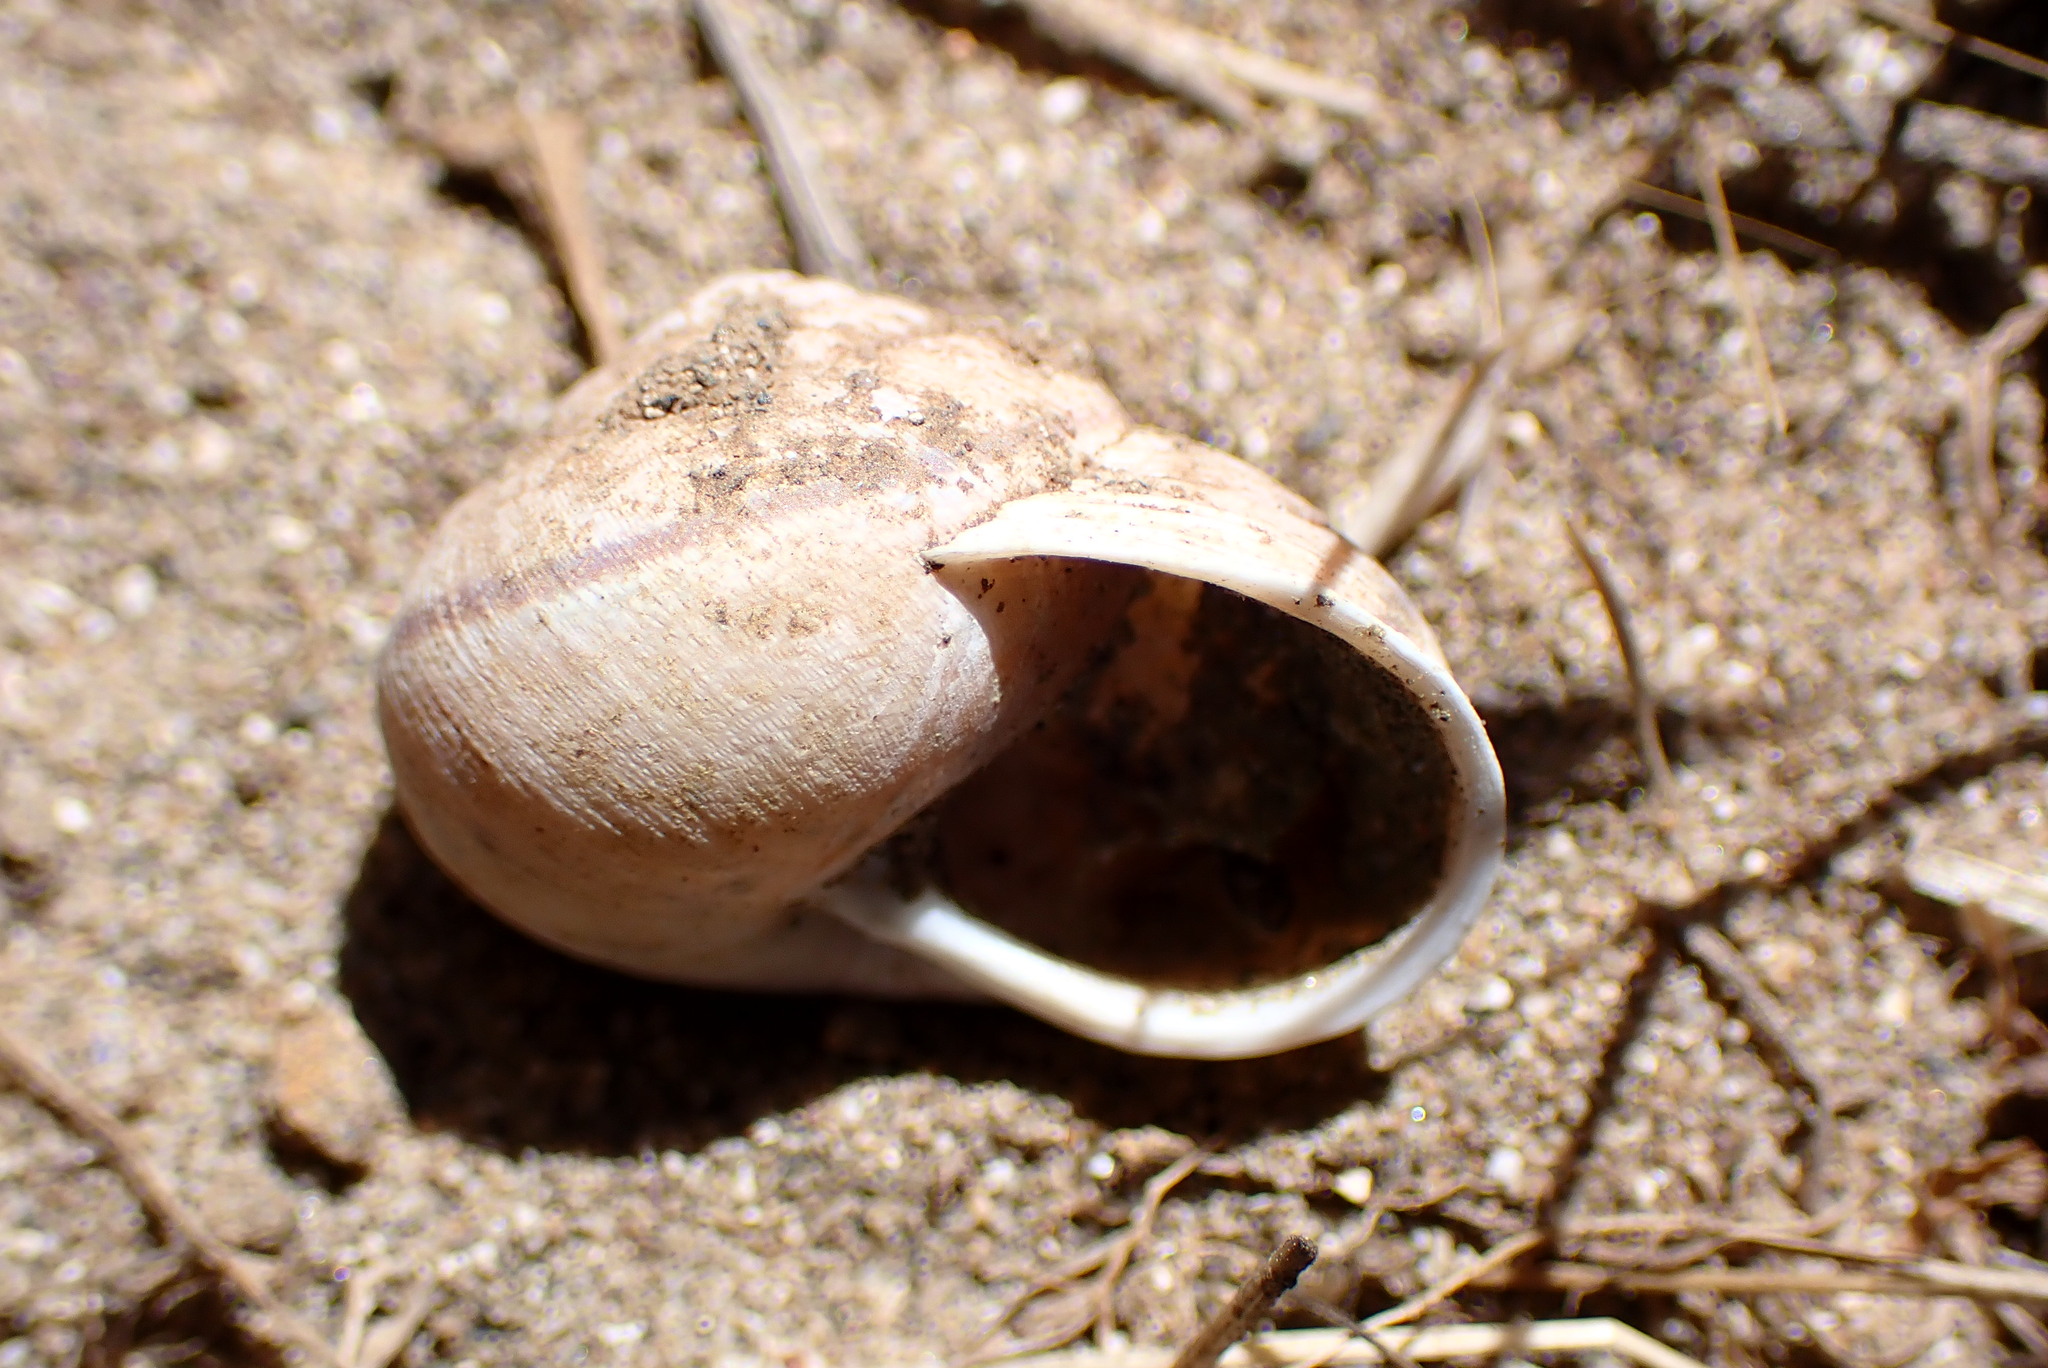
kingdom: Animalia
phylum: Mollusca
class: Gastropoda
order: Stylommatophora
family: Xanthonychidae
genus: Helminthoglypta
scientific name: Helminthoglypta nickliniana
